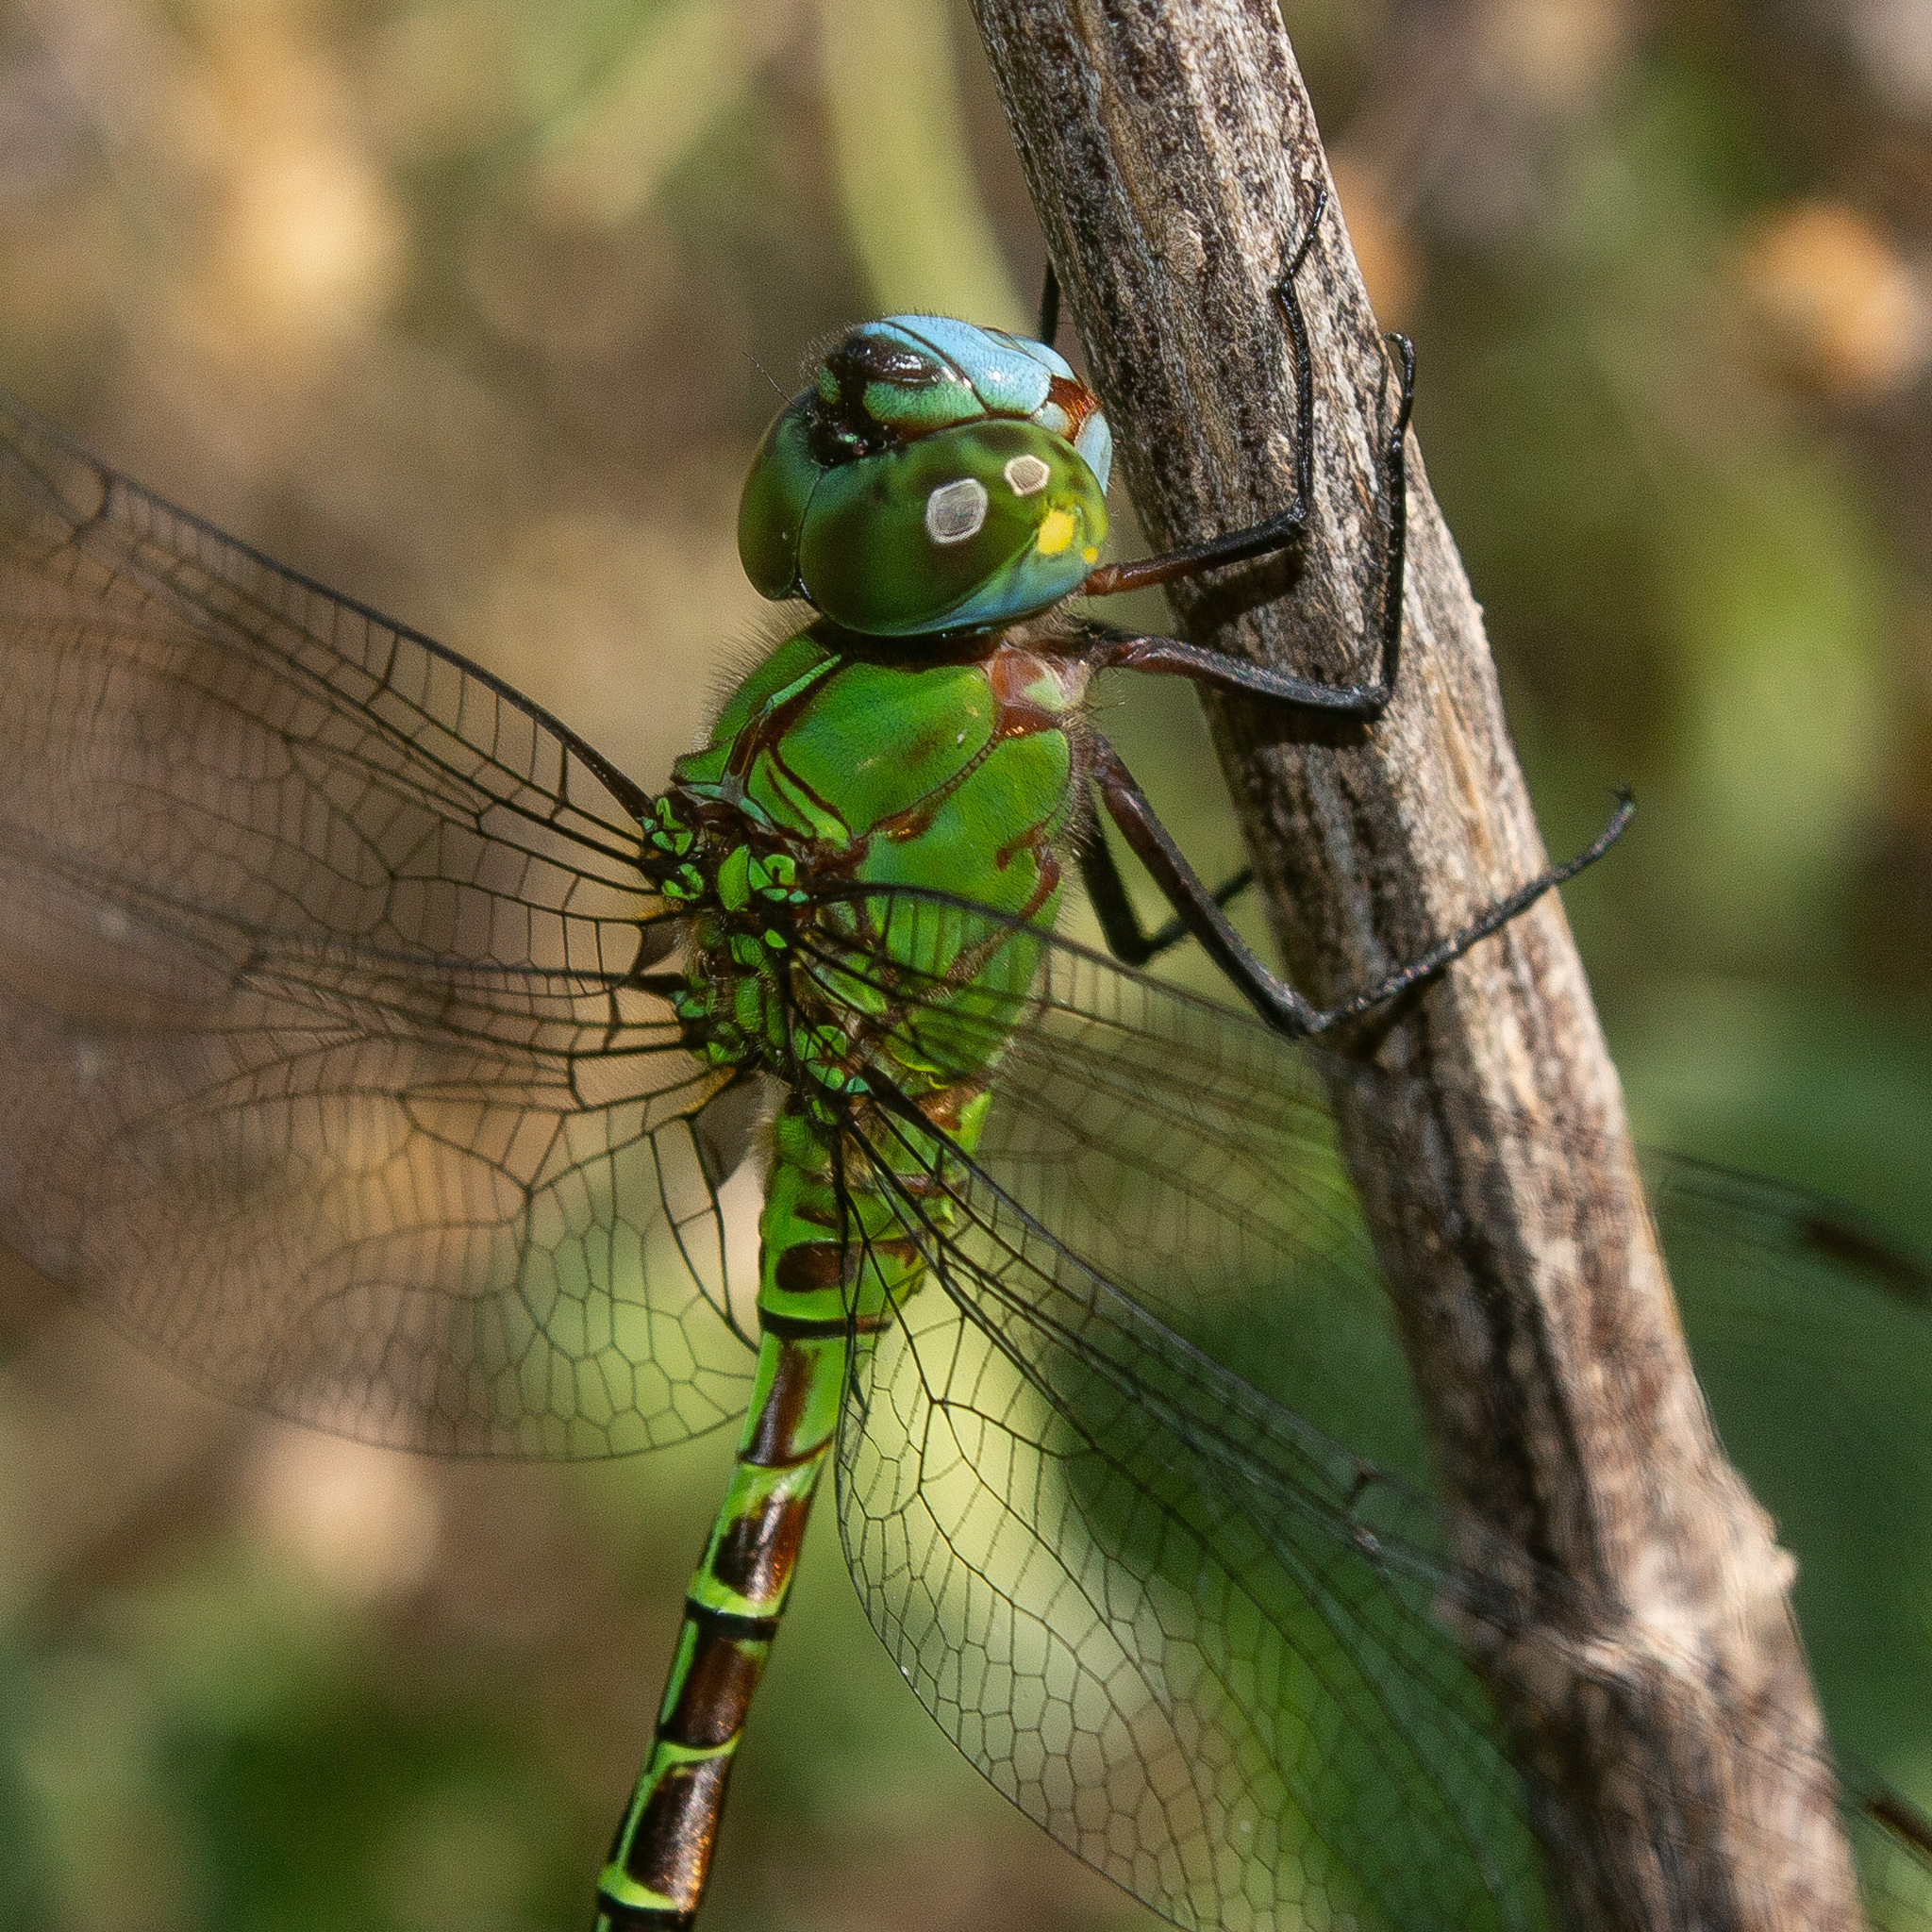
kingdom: Animalia
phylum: Arthropoda
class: Insecta
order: Odonata
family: Aeshnidae
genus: Coryphaeschna
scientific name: Coryphaeschna adnexa
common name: Blue-faced darner
